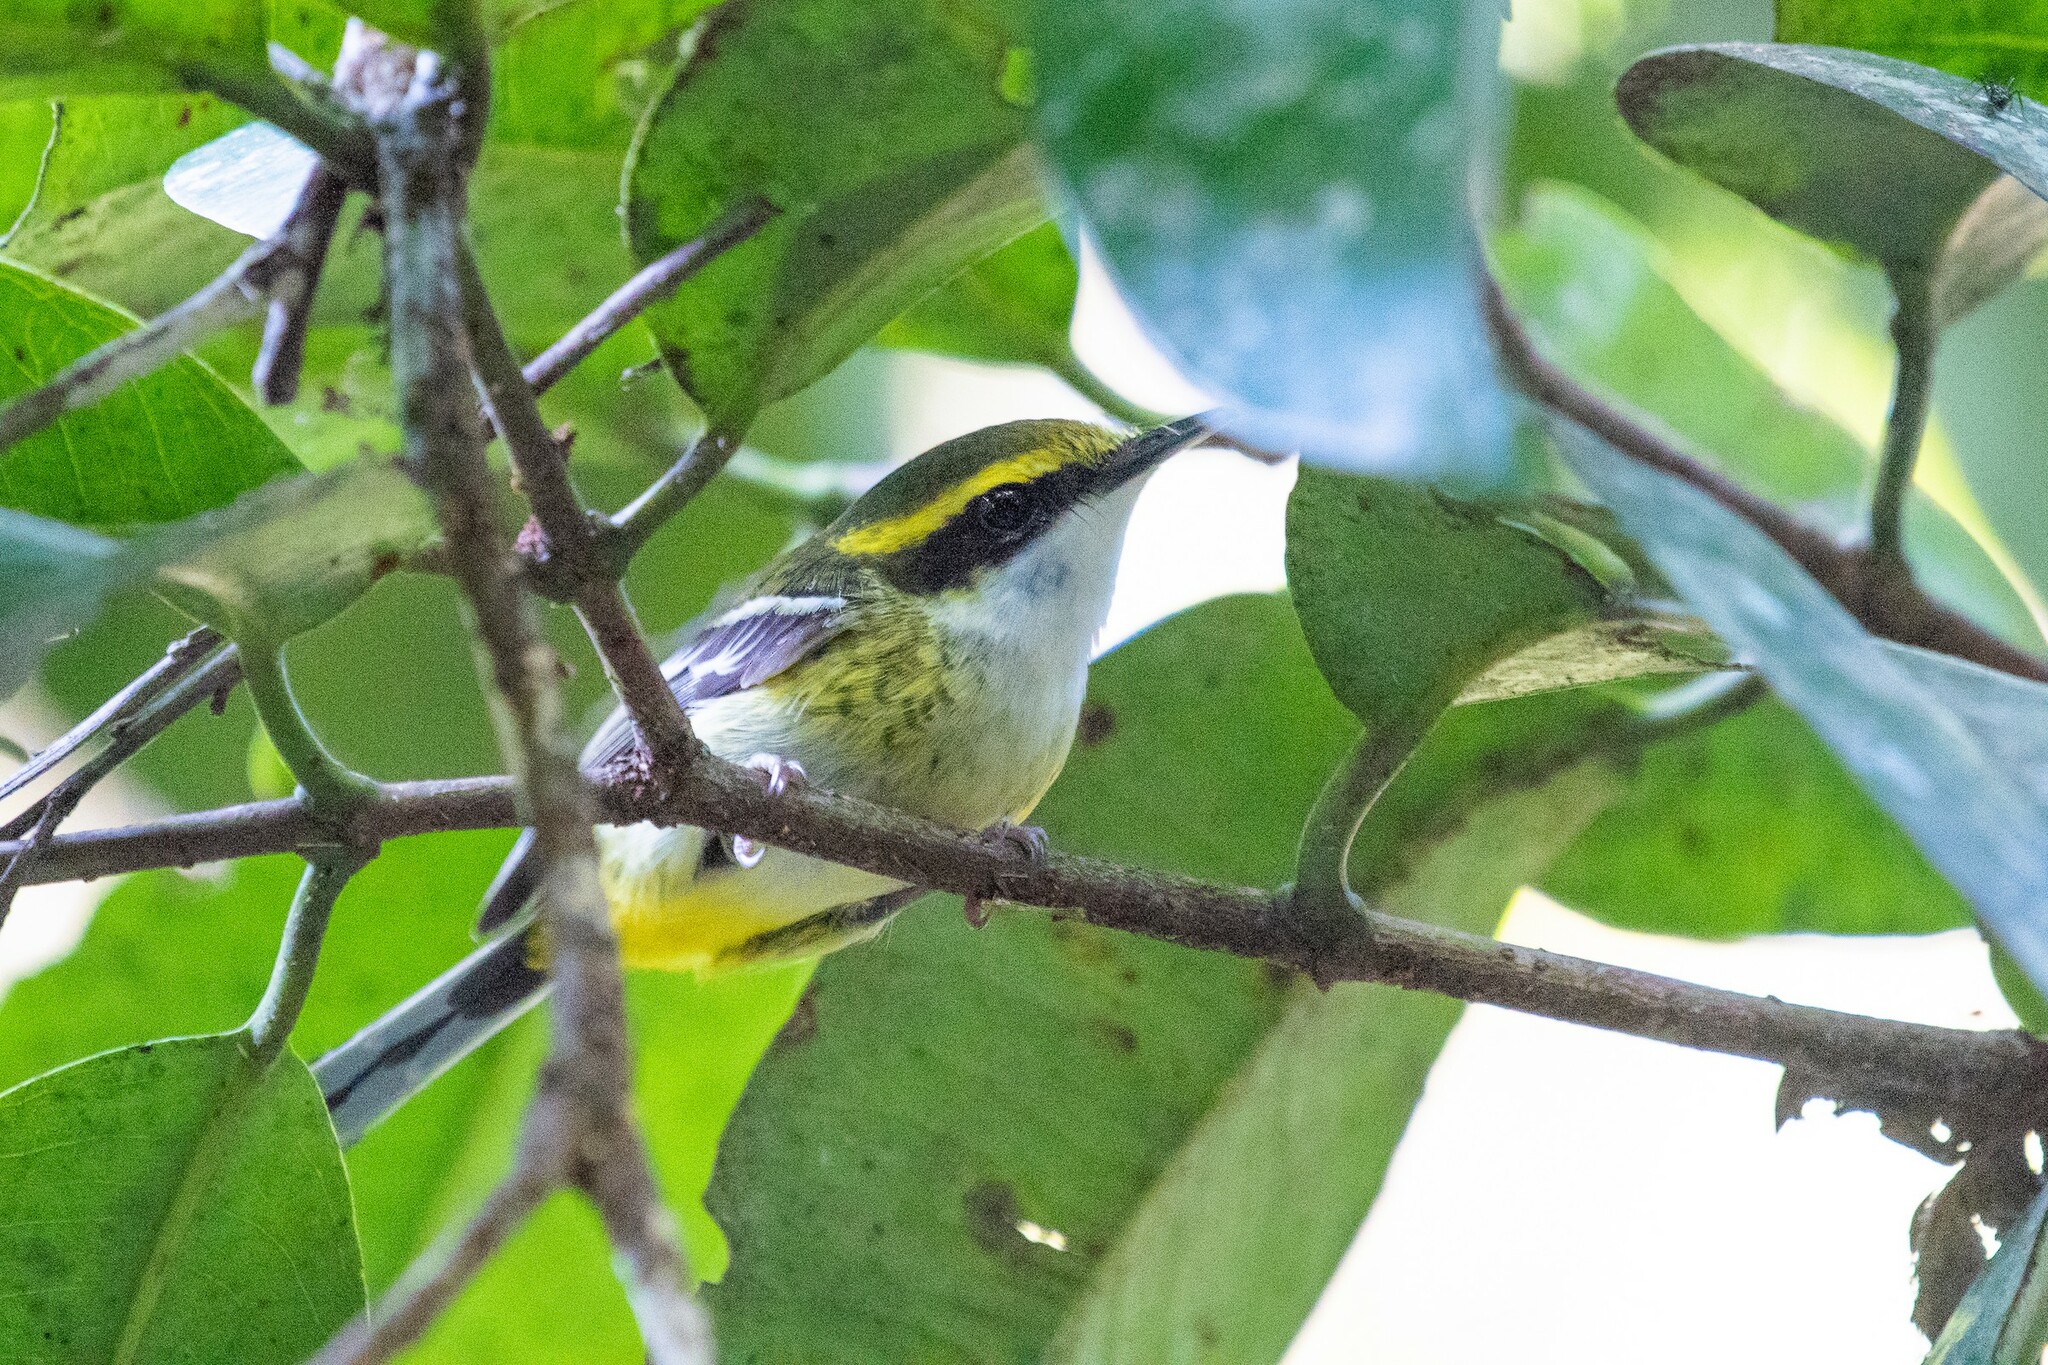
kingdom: Animalia
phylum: Chordata
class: Aves
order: Passeriformes
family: Machaerirhynchidae
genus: Machaerirhynchus
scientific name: Machaerirhynchus flaviventer
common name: Yellow-breasted boatbill
